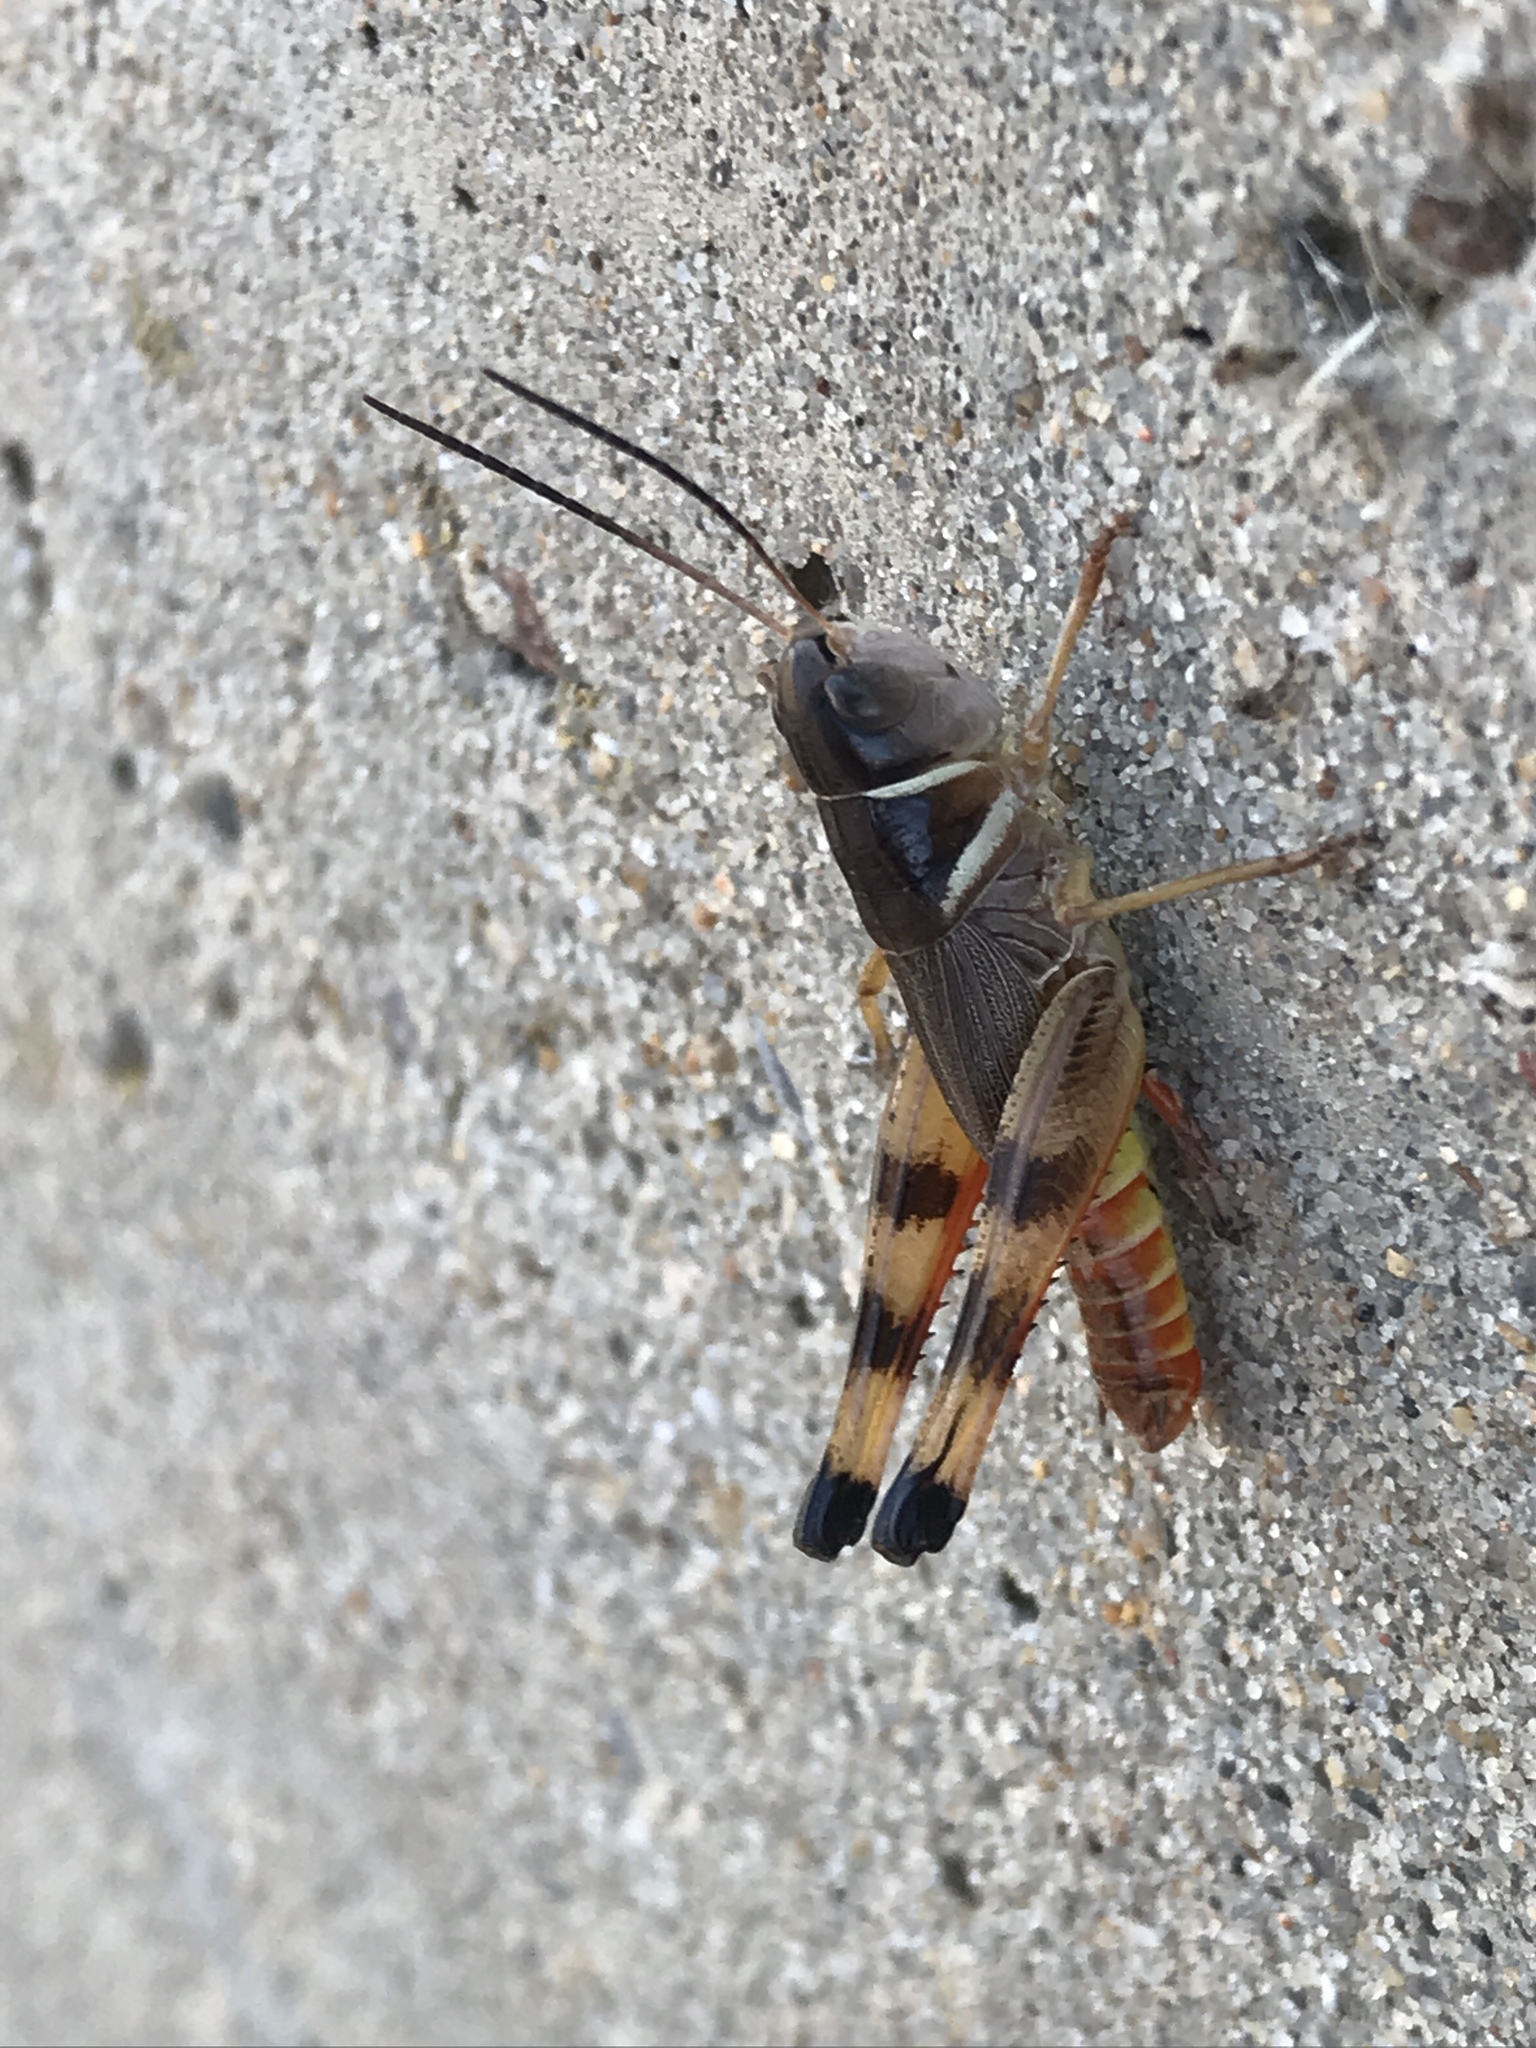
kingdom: Animalia
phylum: Arthropoda
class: Insecta
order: Orthoptera
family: Acrididae
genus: Boopedon
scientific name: Boopedon auriventris
